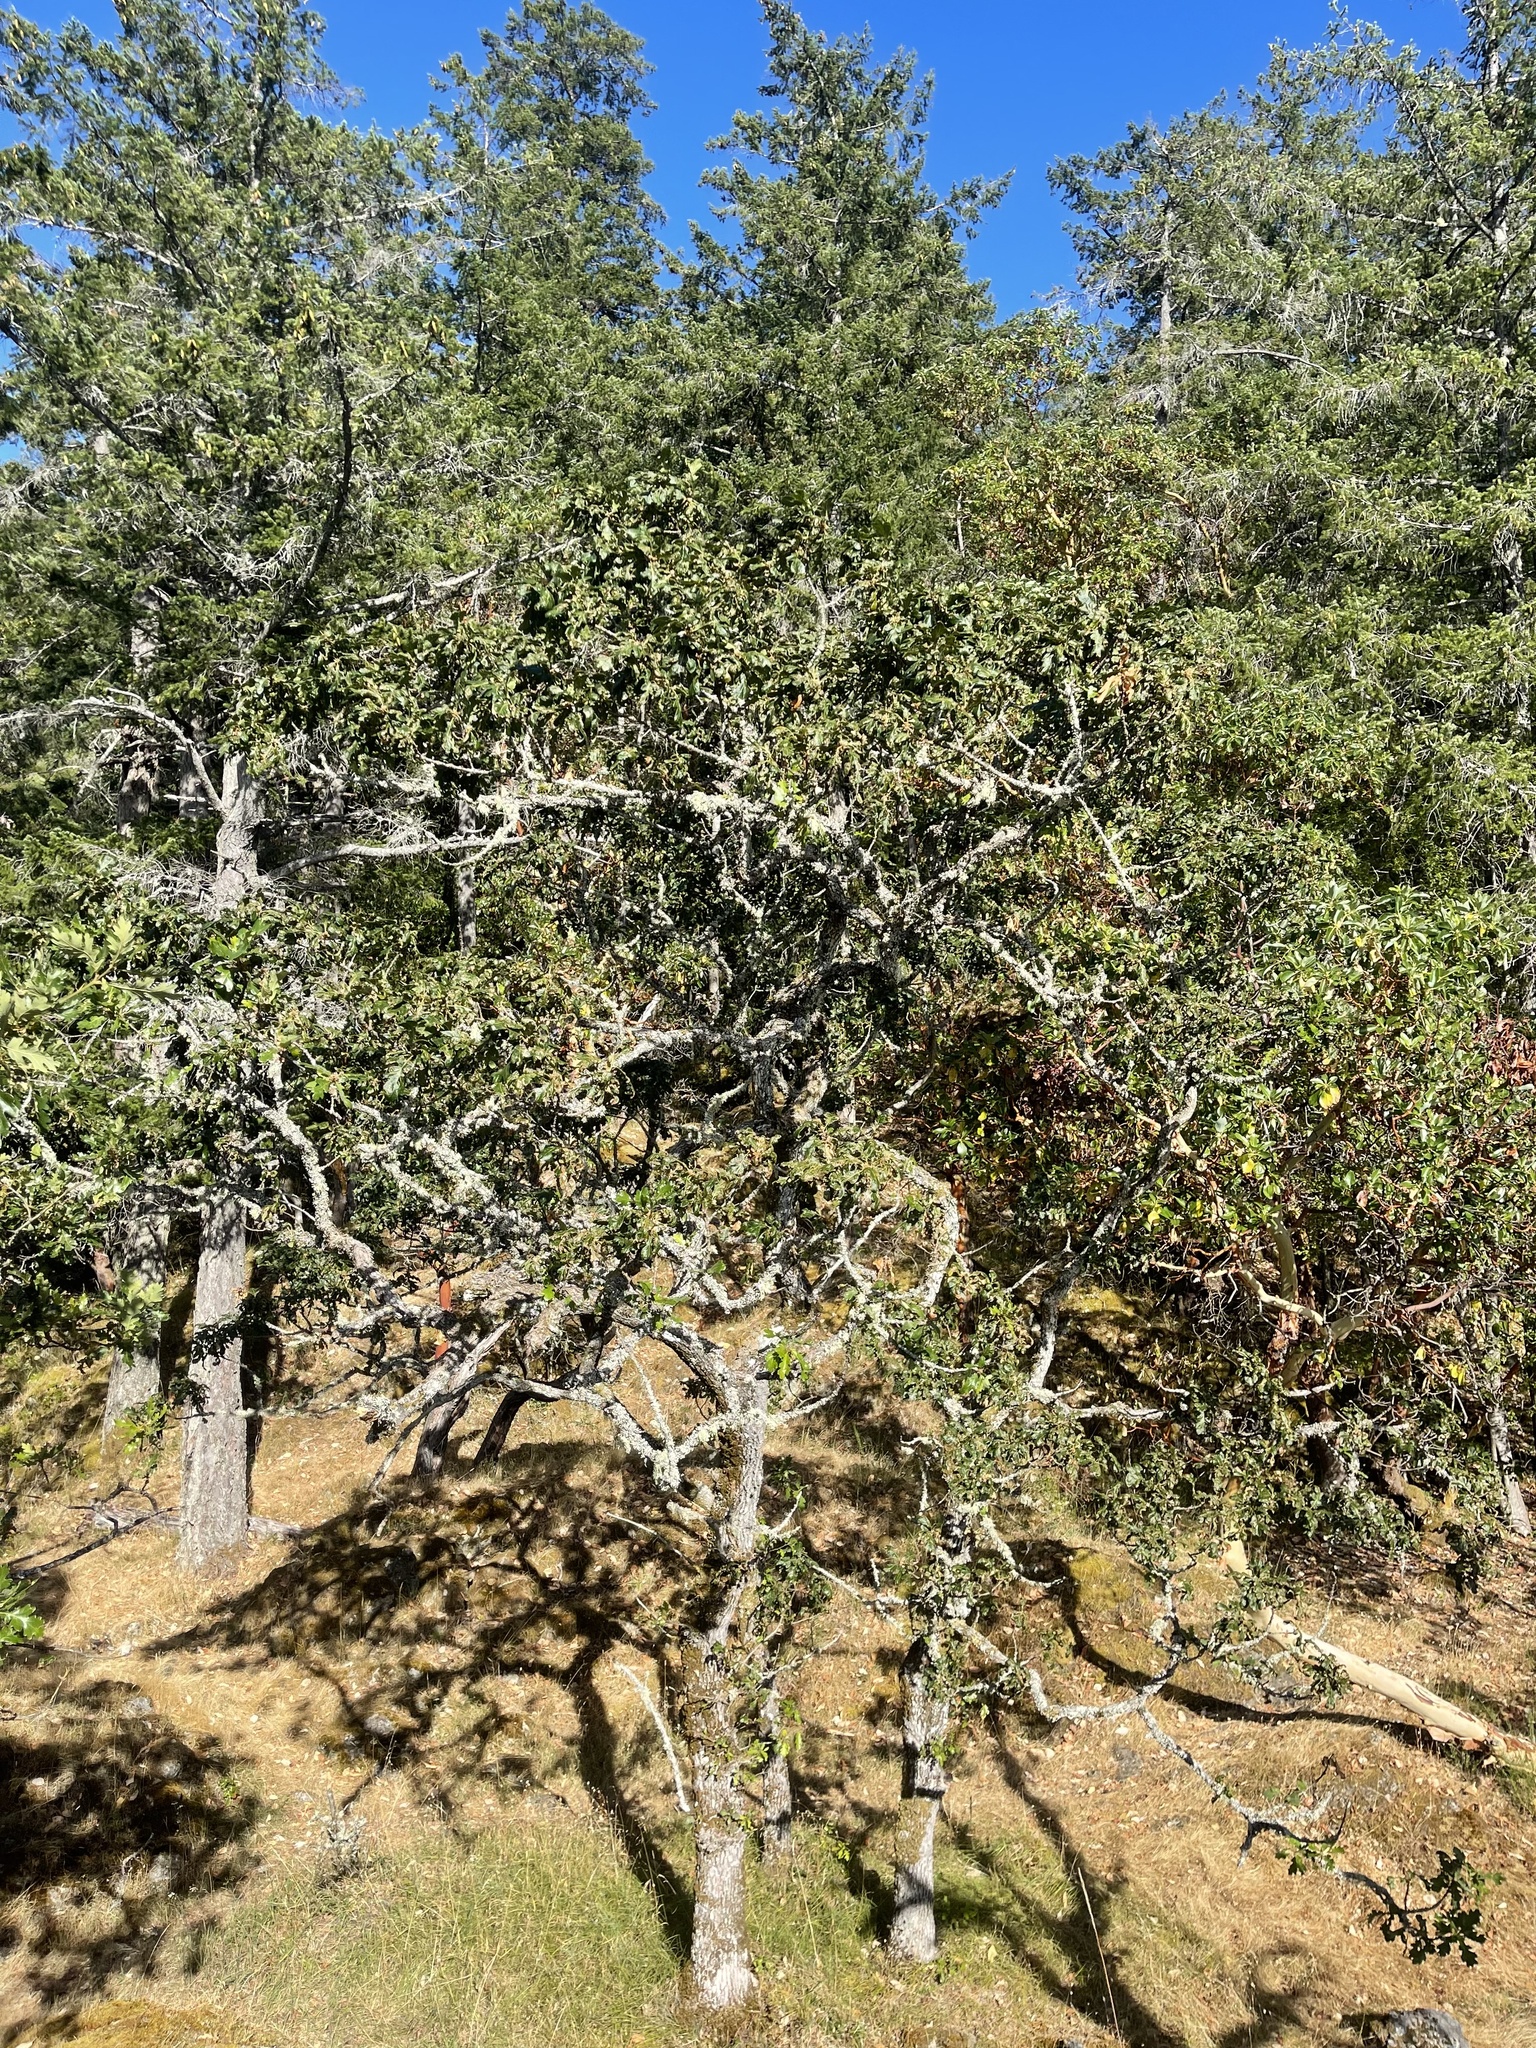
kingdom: Plantae
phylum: Tracheophyta
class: Magnoliopsida
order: Fagales
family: Fagaceae
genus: Quercus
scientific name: Quercus garryana
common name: Garry oak
